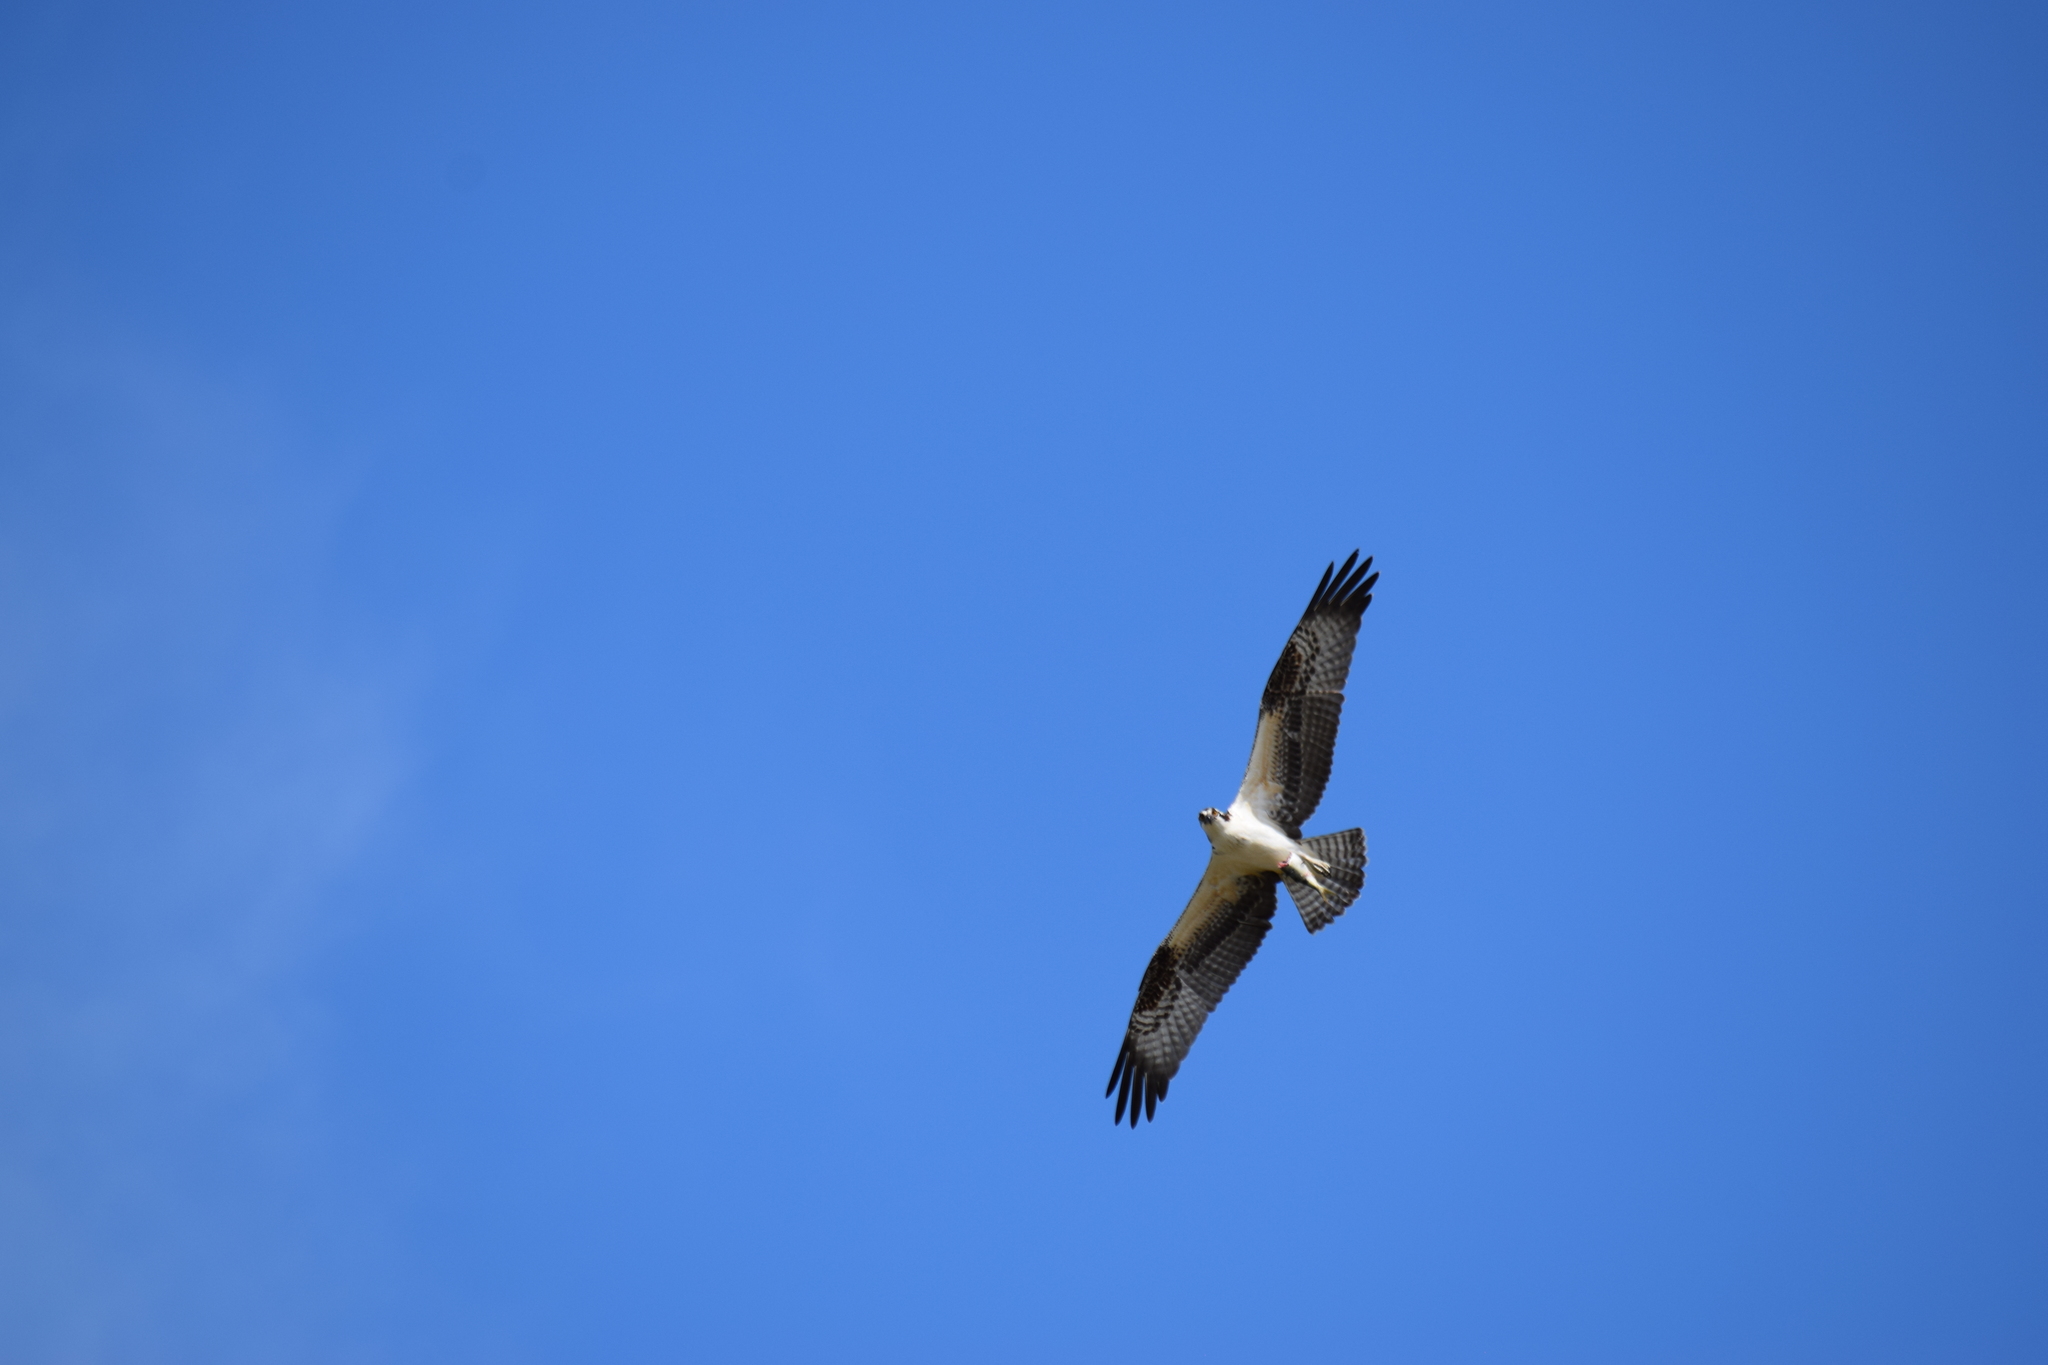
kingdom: Animalia
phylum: Chordata
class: Aves
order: Accipitriformes
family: Pandionidae
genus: Pandion
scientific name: Pandion haliaetus
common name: Osprey
